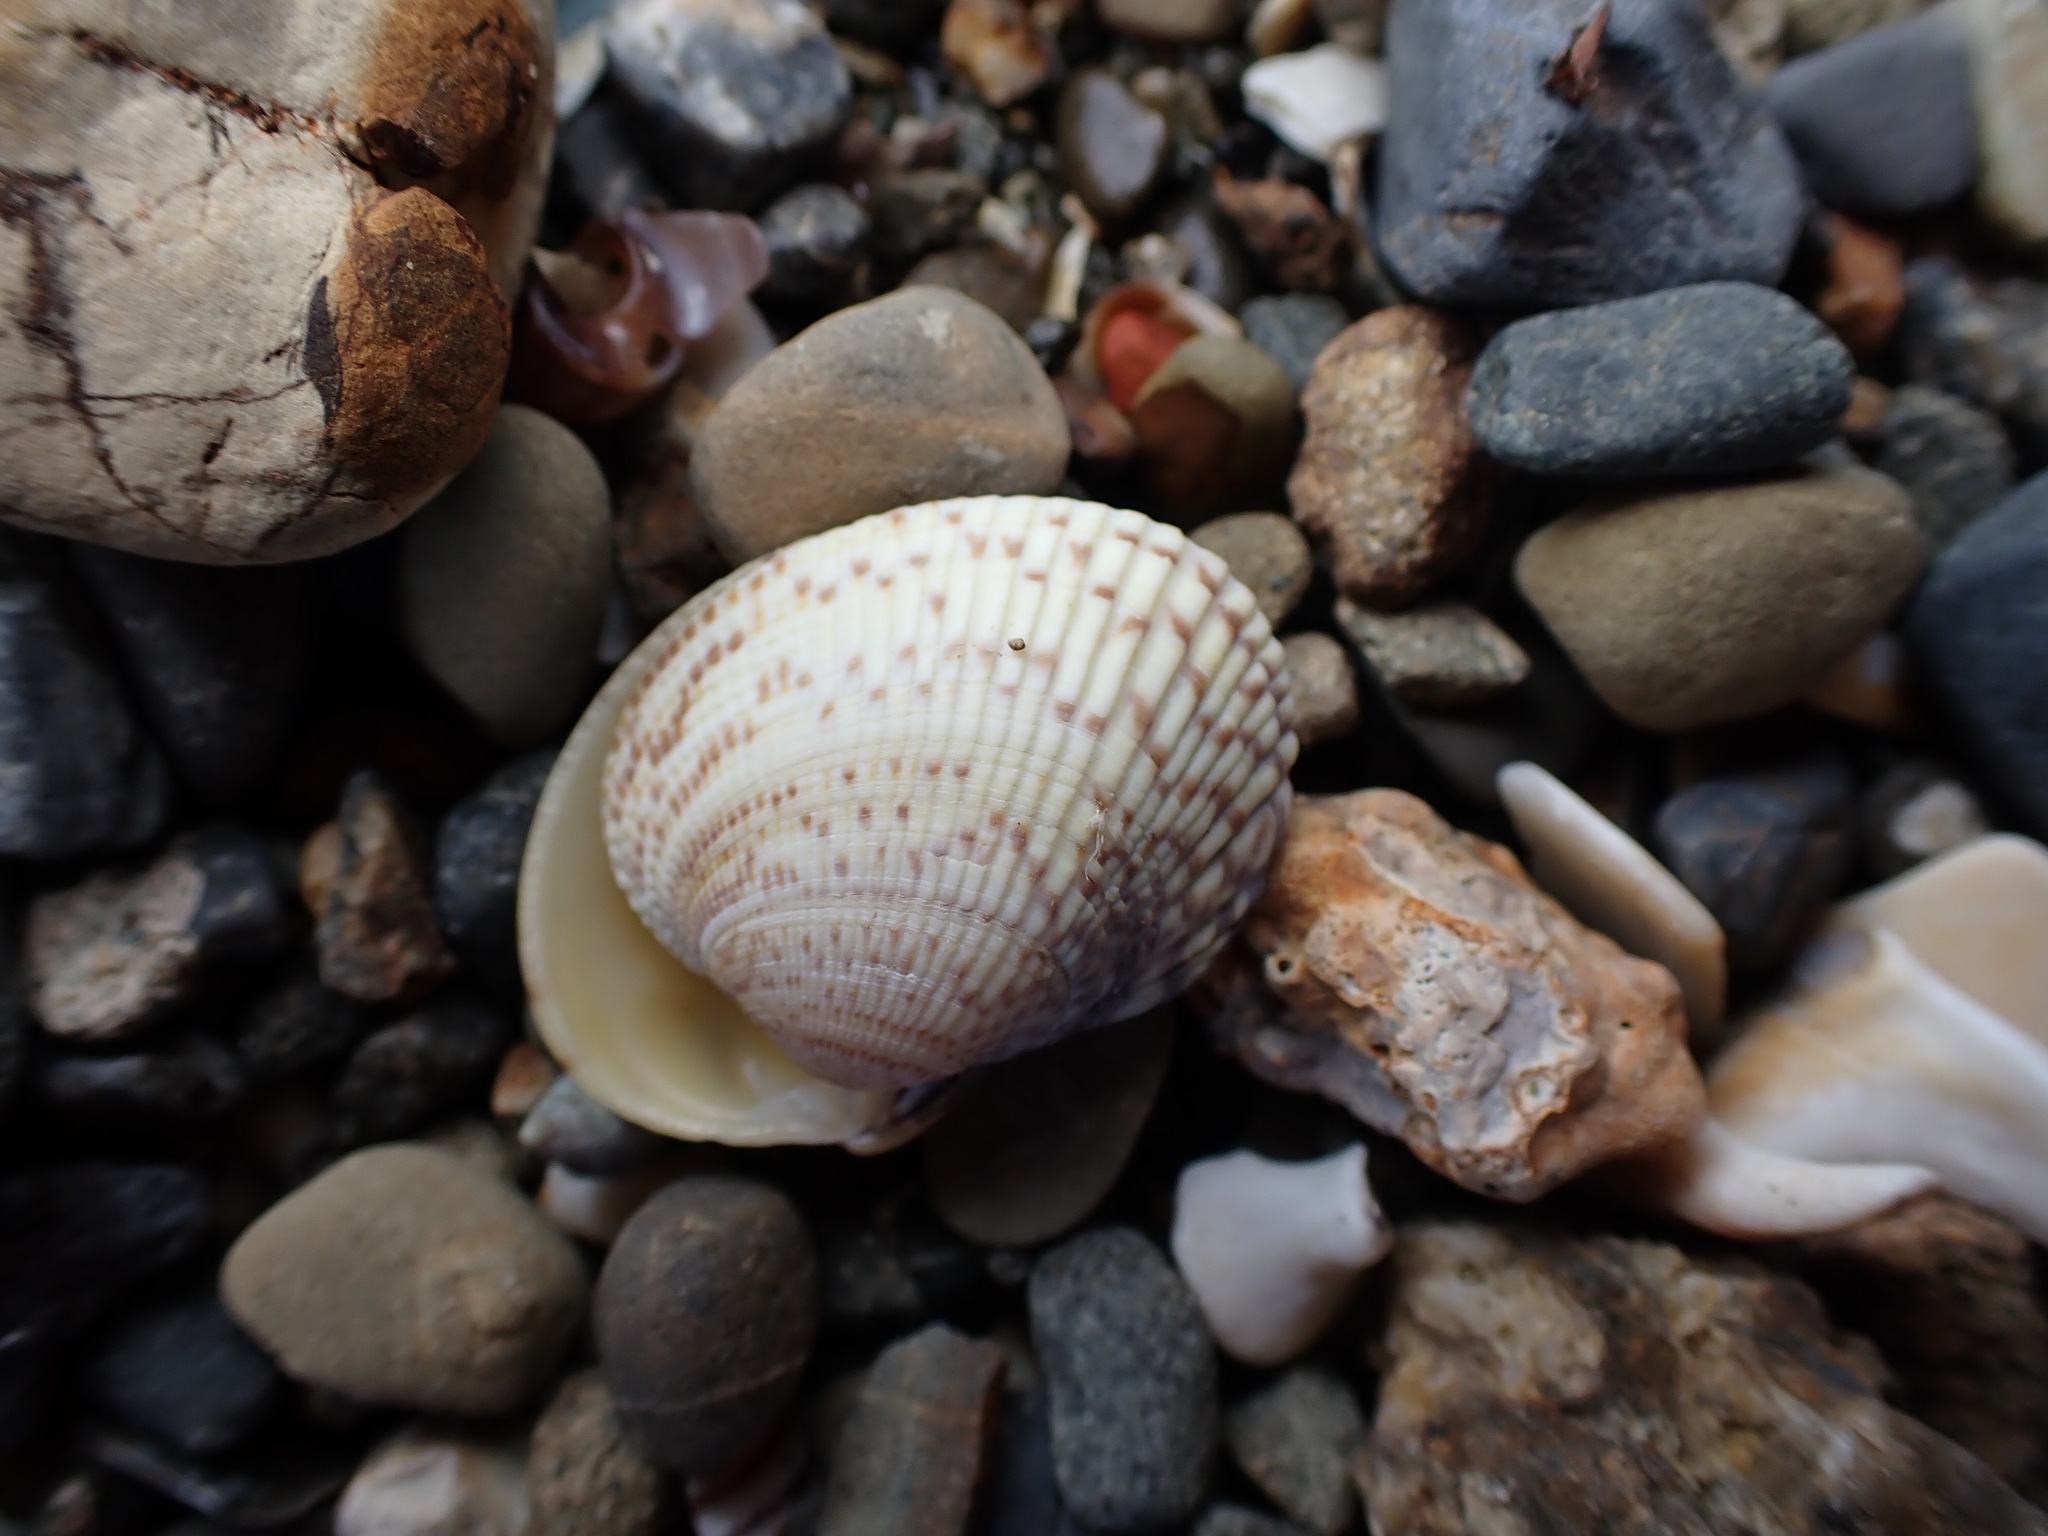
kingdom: Animalia
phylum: Mollusca
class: Bivalvia
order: Venerida
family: Veneridae
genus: Leukoma
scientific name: Leukoma crassicosta
